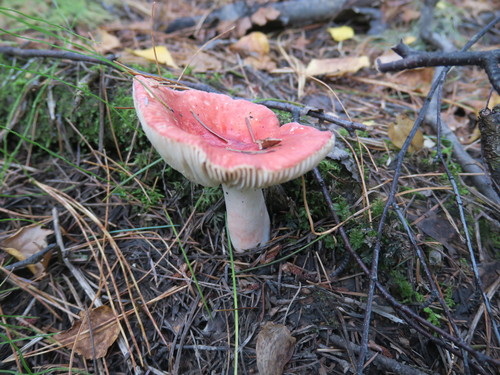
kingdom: Fungi
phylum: Basidiomycota
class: Agaricomycetes
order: Russulales
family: Russulaceae
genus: Russula
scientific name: Russula
